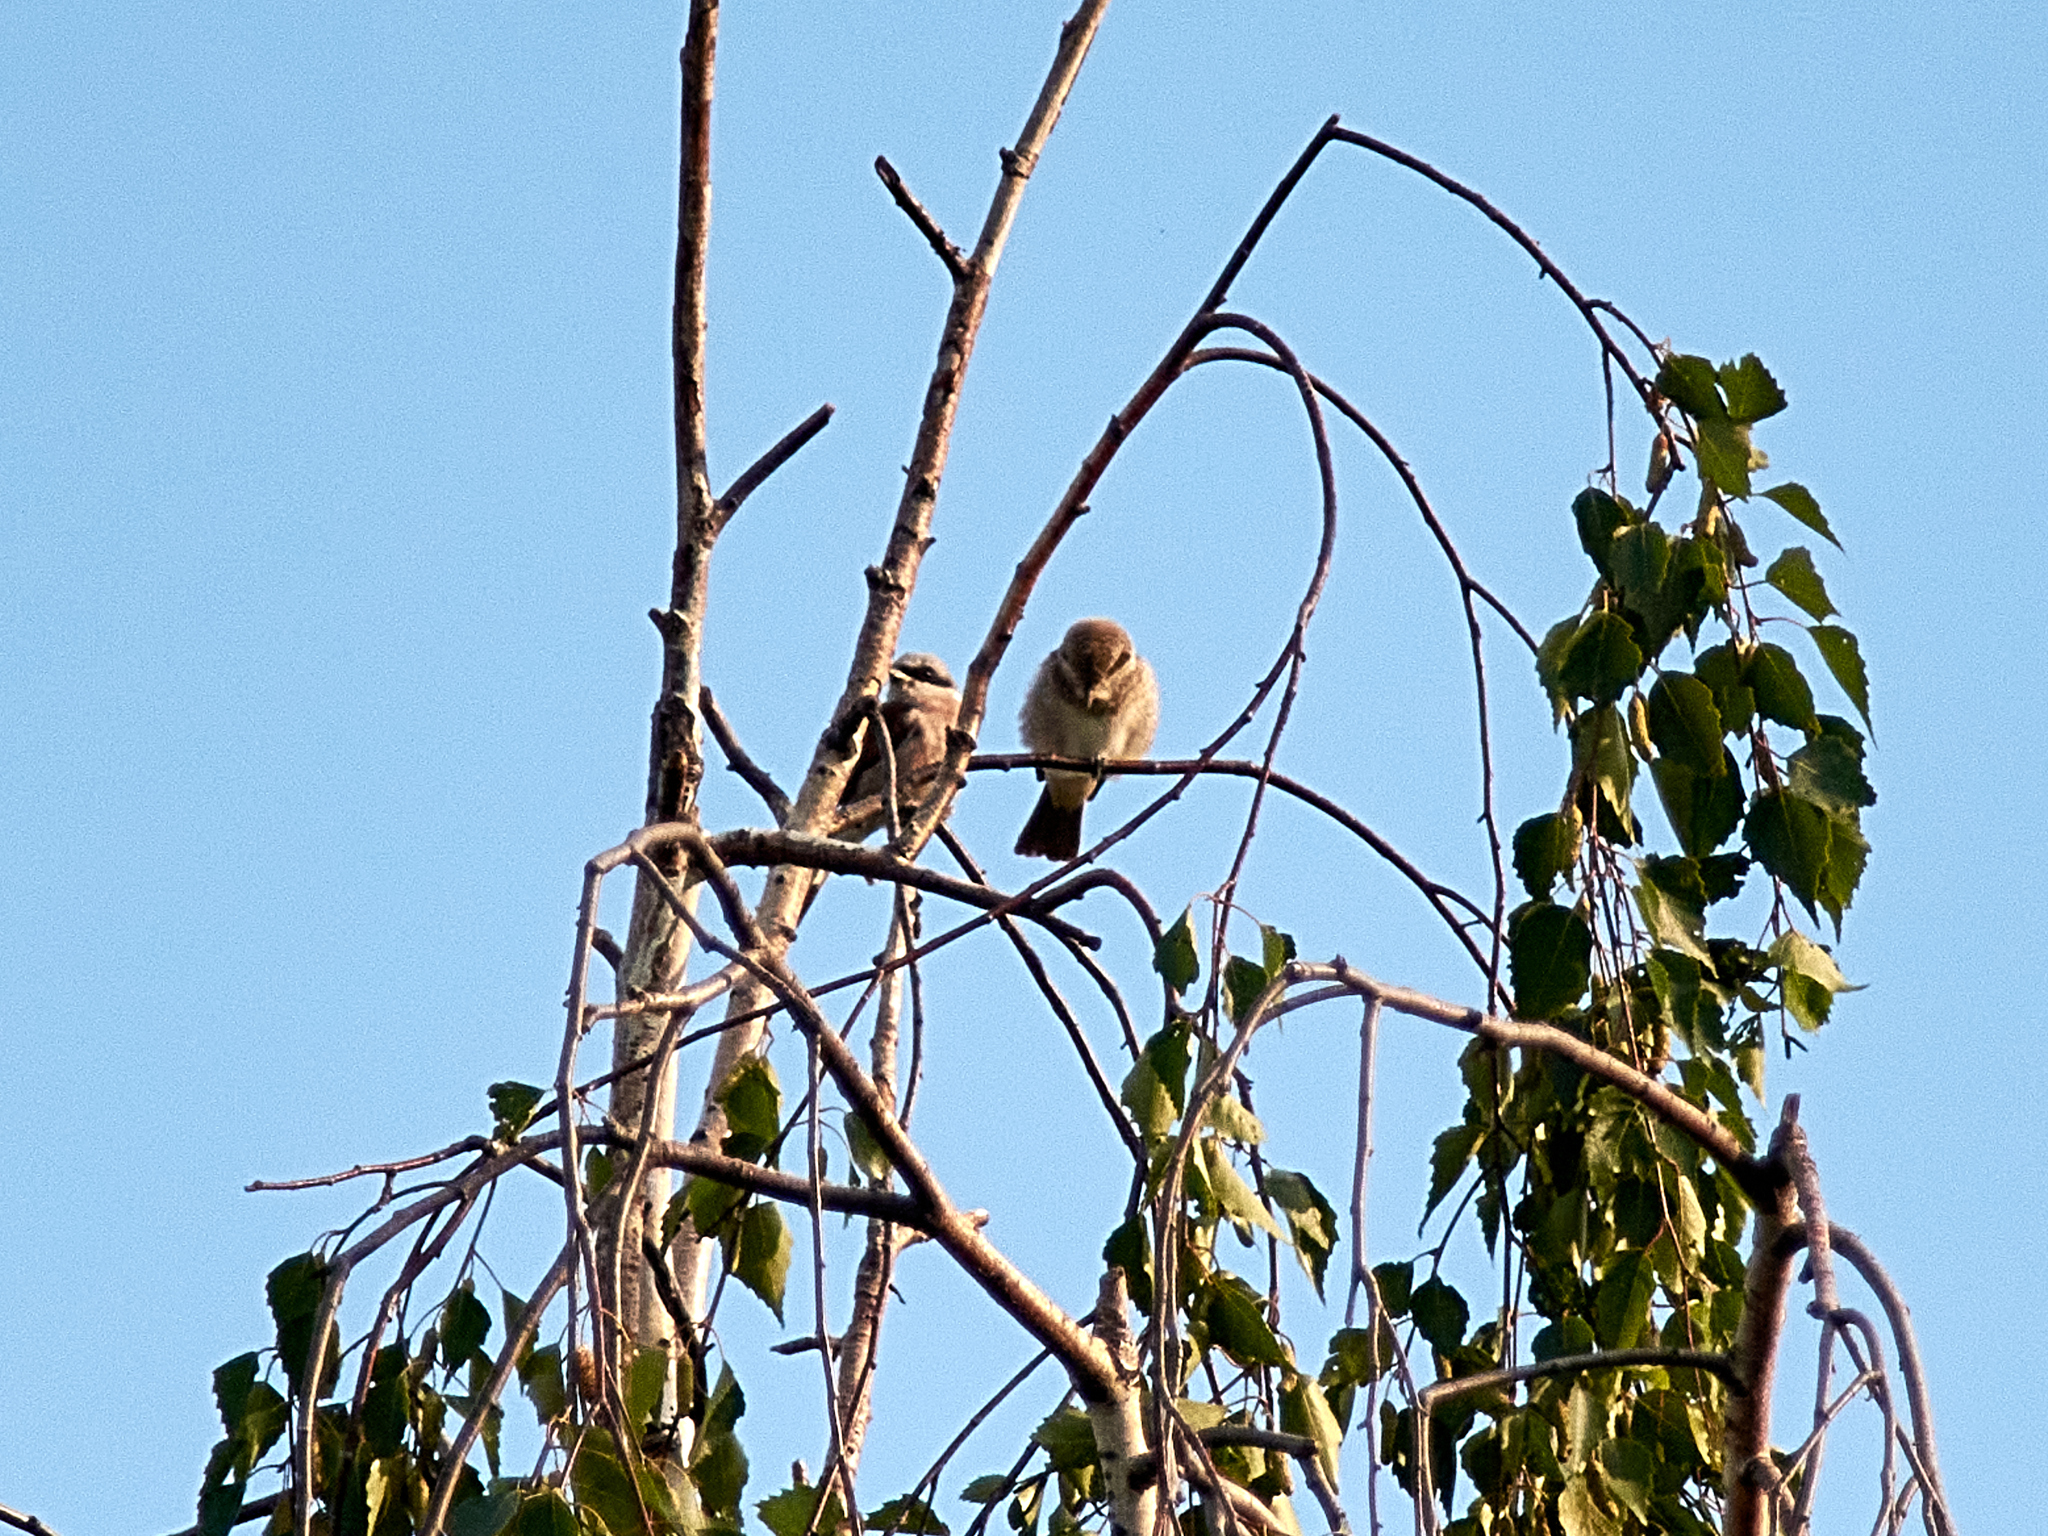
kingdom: Animalia
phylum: Chordata
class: Aves
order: Passeriformes
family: Laniidae
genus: Lanius
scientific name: Lanius collurio
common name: Red-backed shrike
